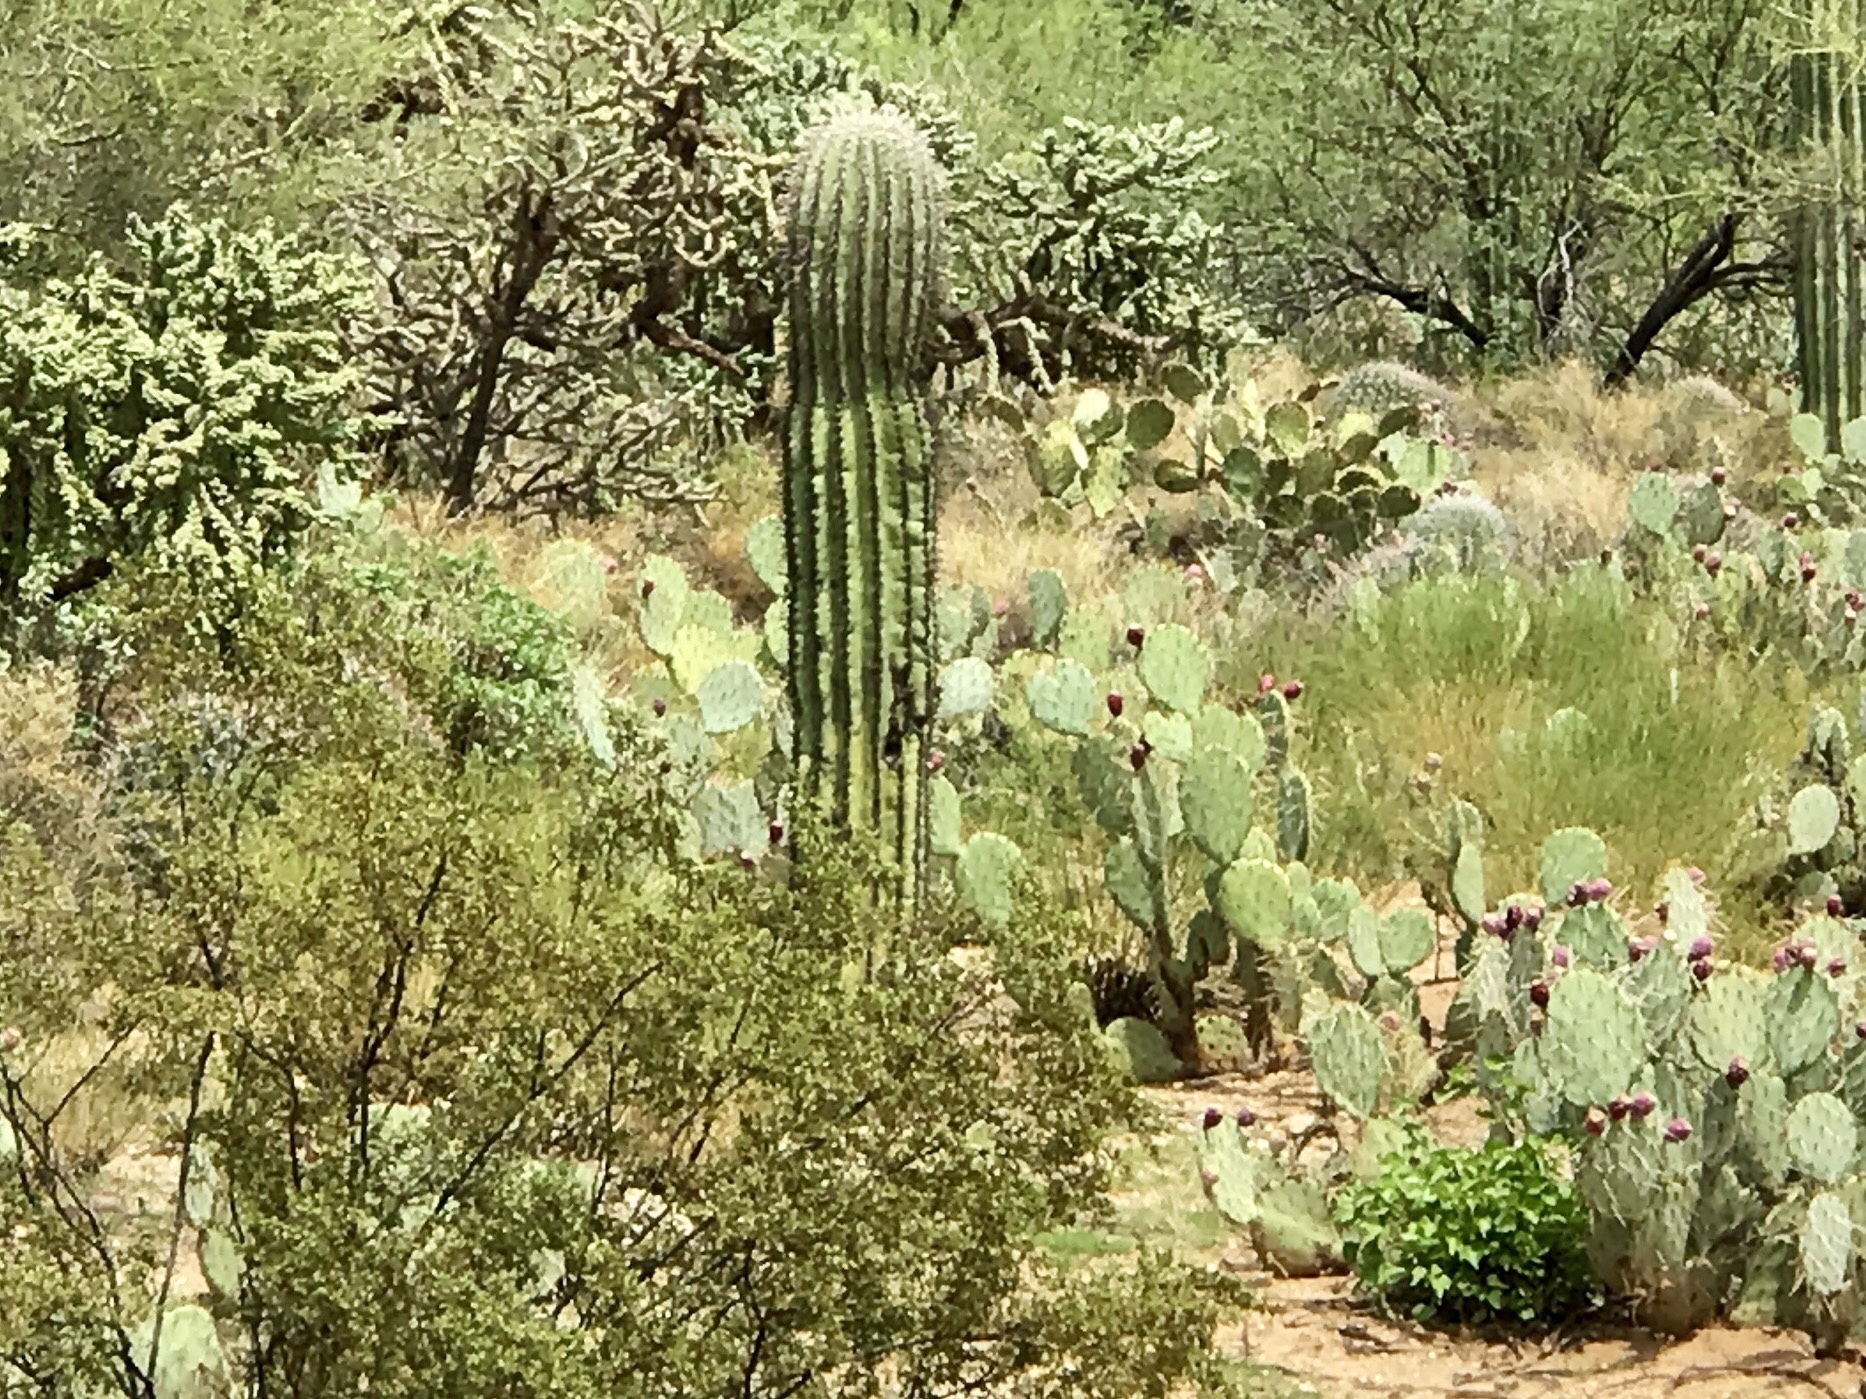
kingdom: Plantae
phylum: Tracheophyta
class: Magnoliopsida
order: Caryophyllales
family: Cactaceae
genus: Carnegiea
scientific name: Carnegiea gigantea
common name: Saguaro
